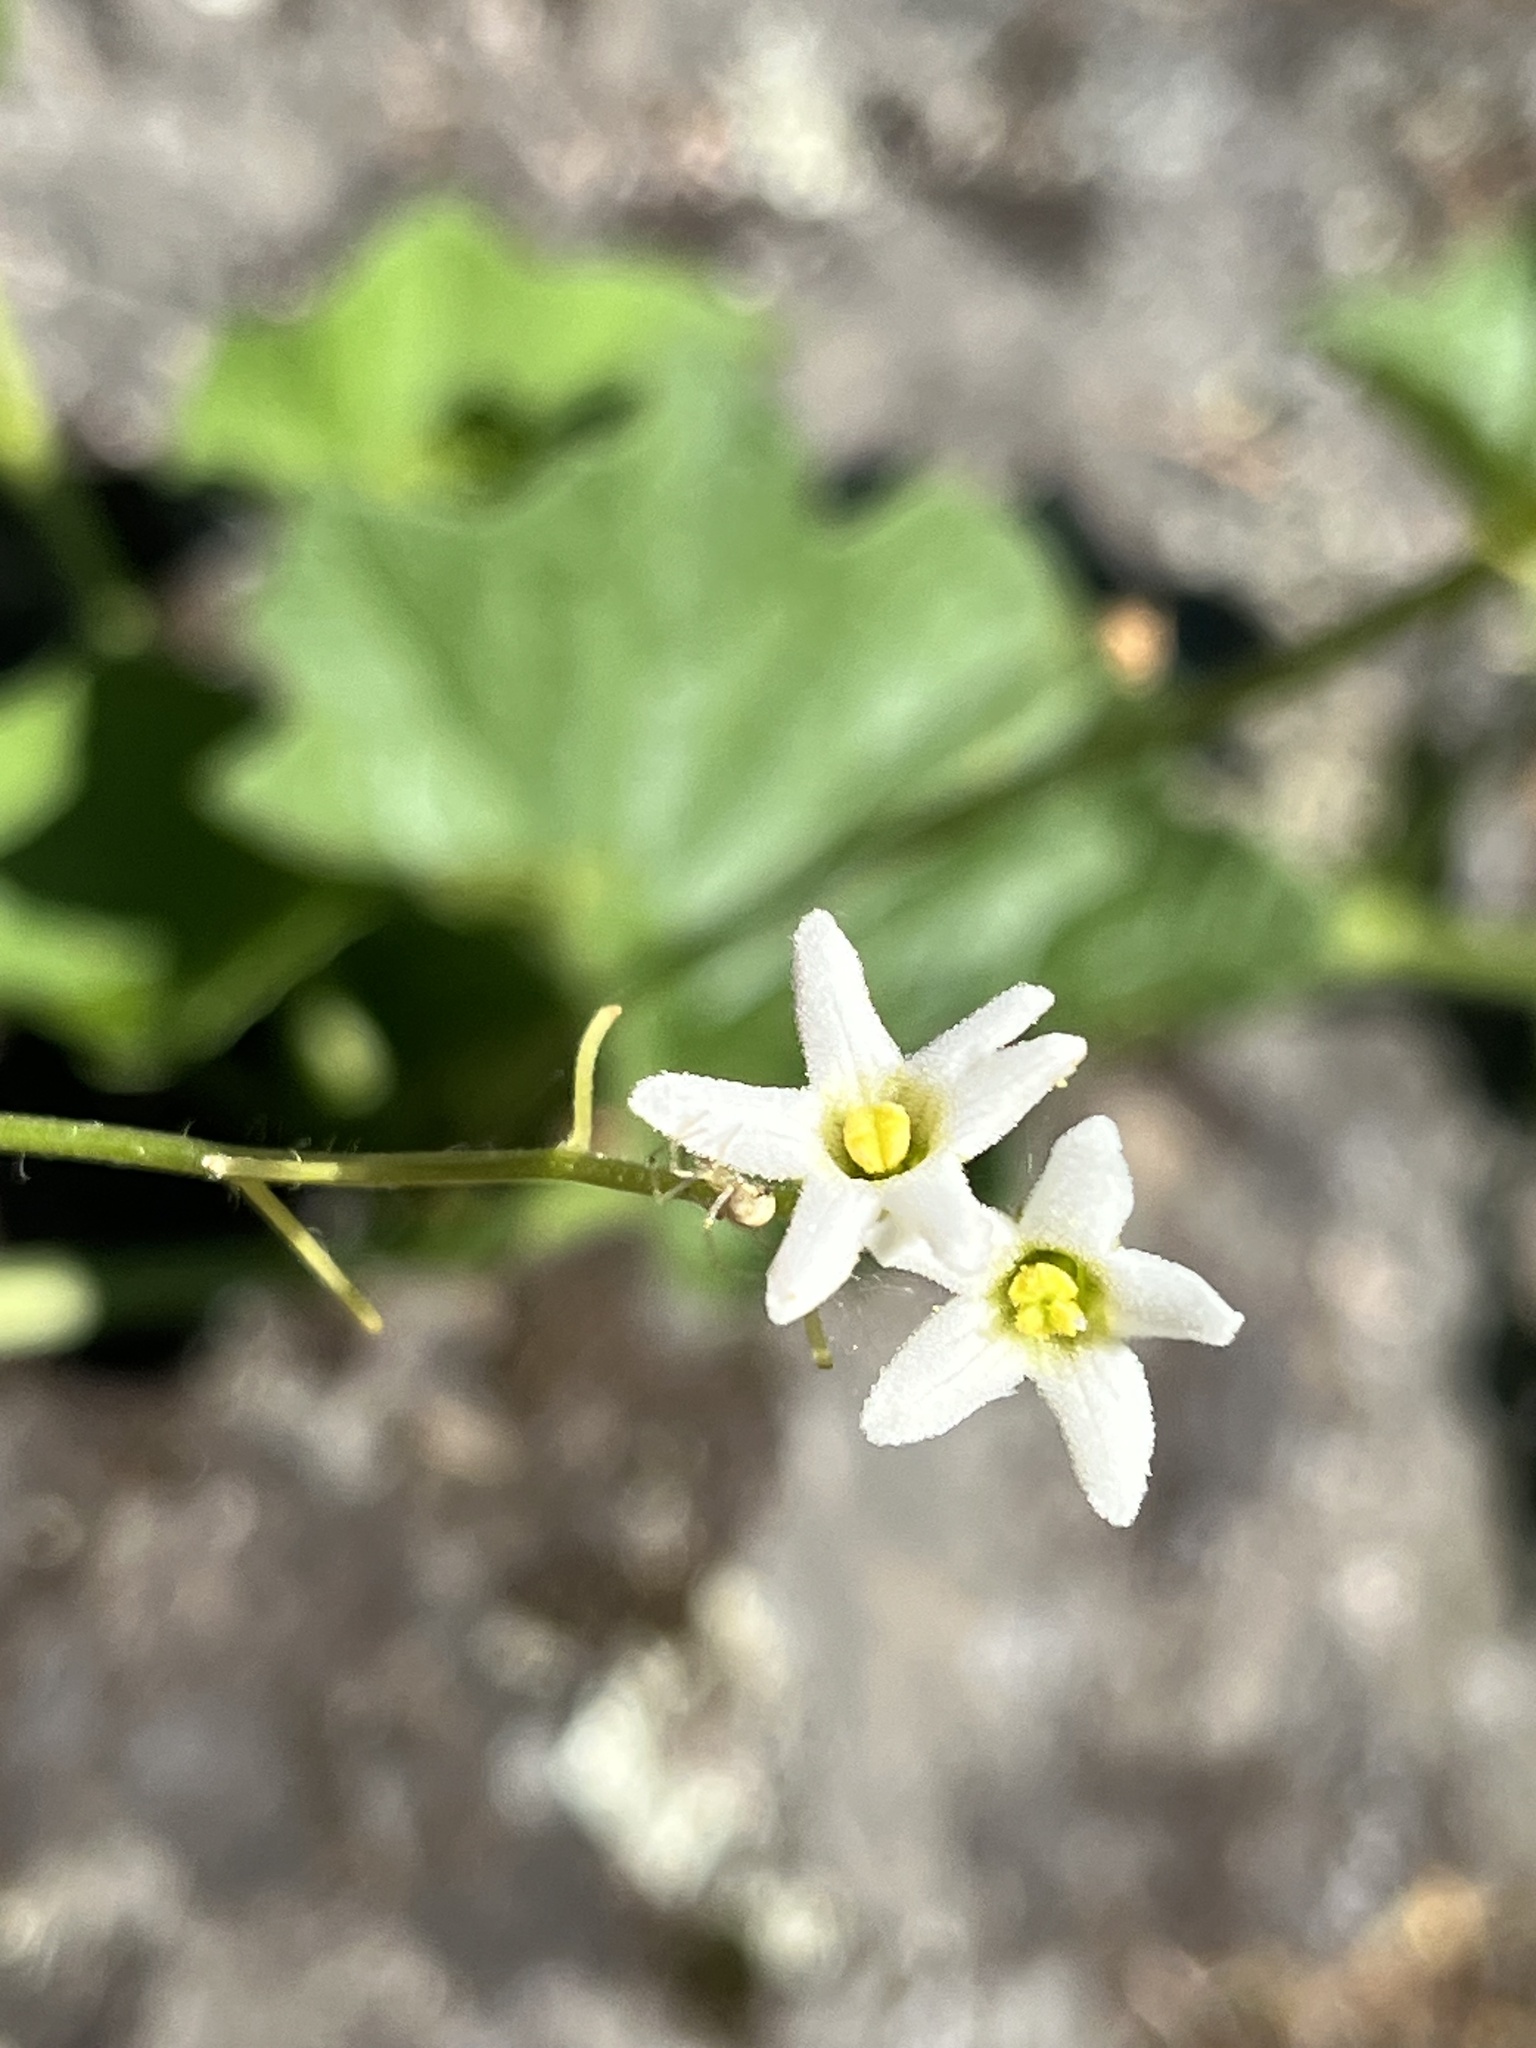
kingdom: Plantae
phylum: Tracheophyta
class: Magnoliopsida
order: Cucurbitales
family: Cucurbitaceae
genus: Marah
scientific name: Marah oregana
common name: Coastal manroot
